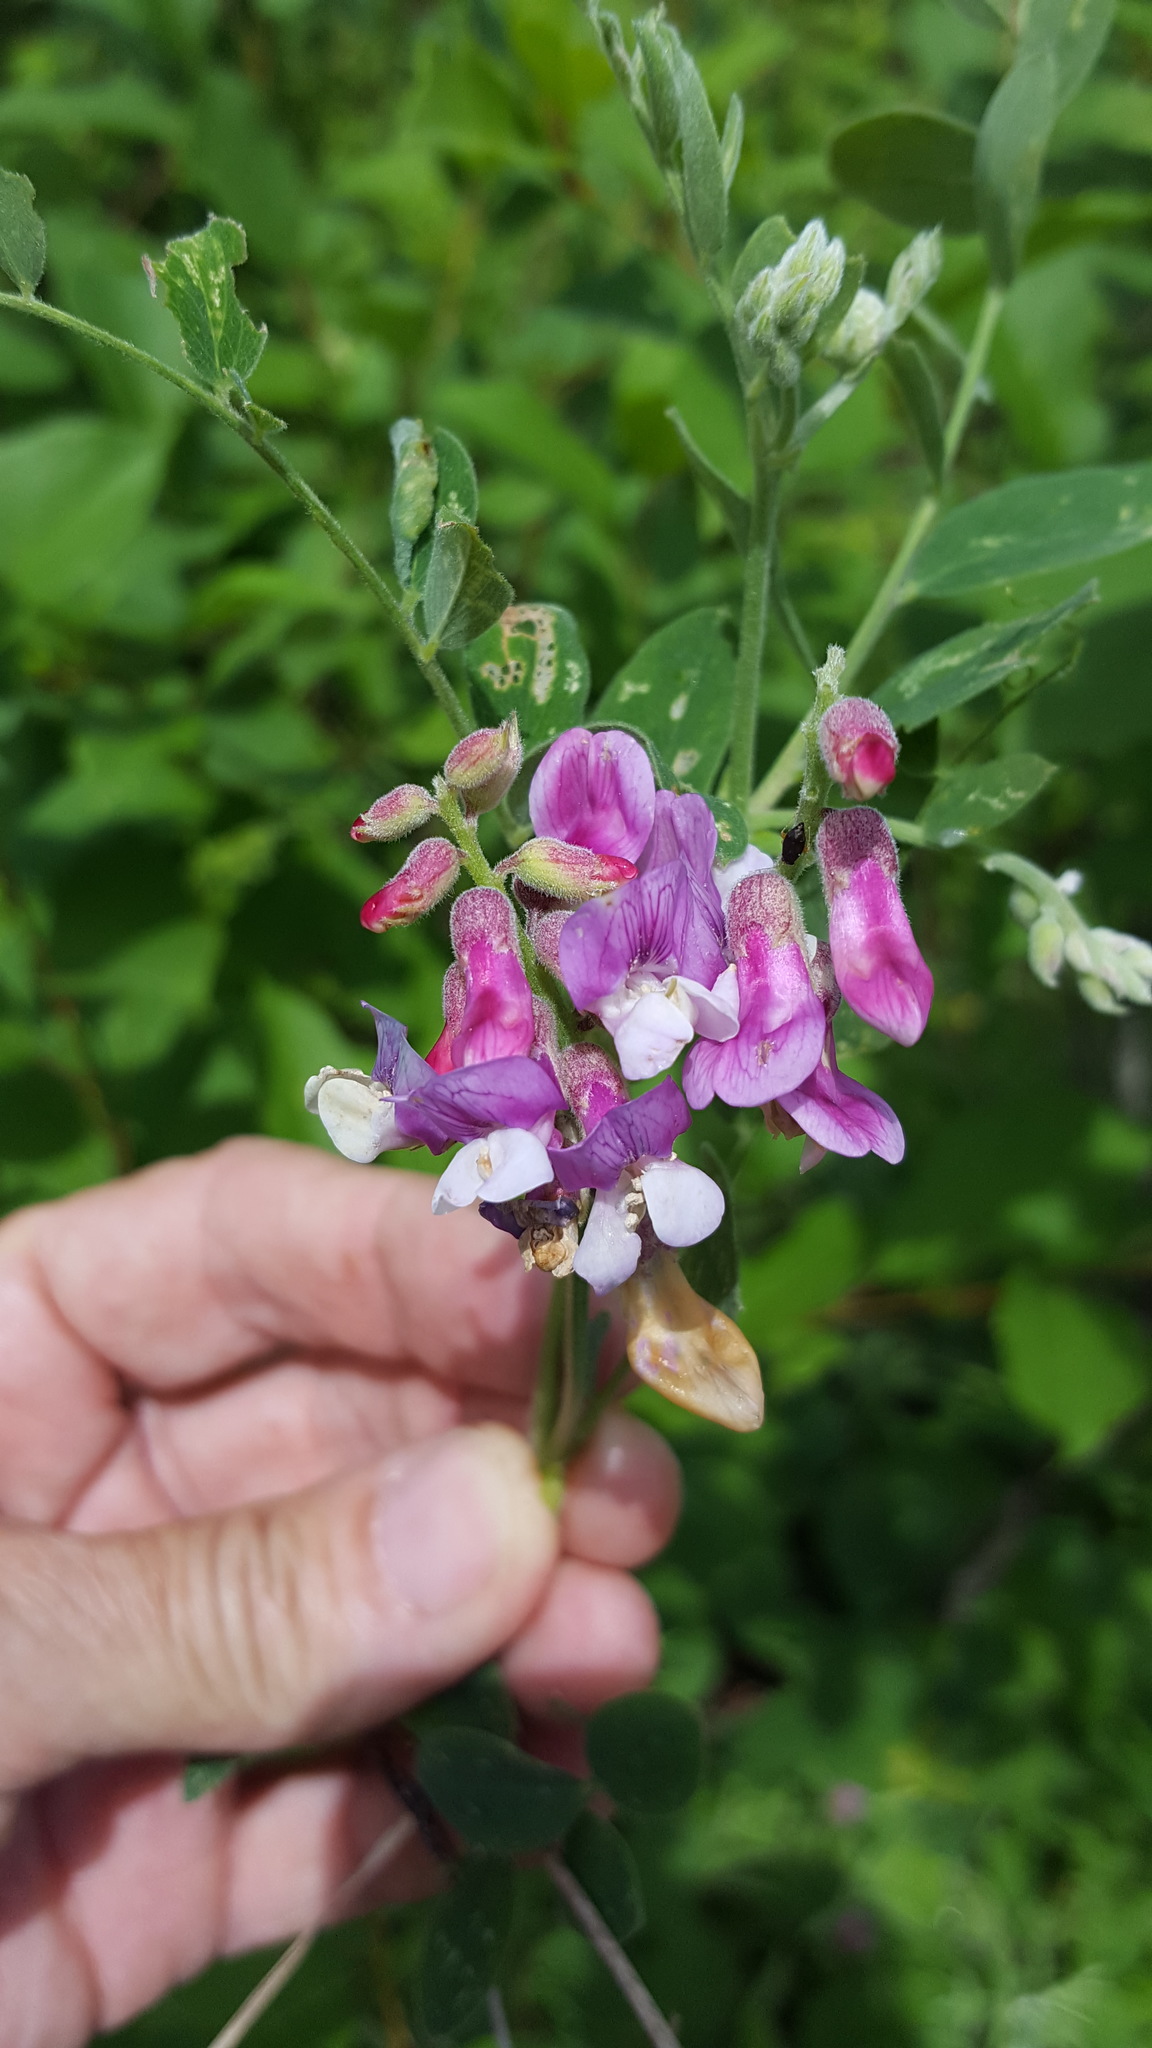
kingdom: Plantae
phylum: Tracheophyta
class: Magnoliopsida
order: Fabales
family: Fabaceae
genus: Lathyrus
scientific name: Lathyrus venosus
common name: Forest-pea
